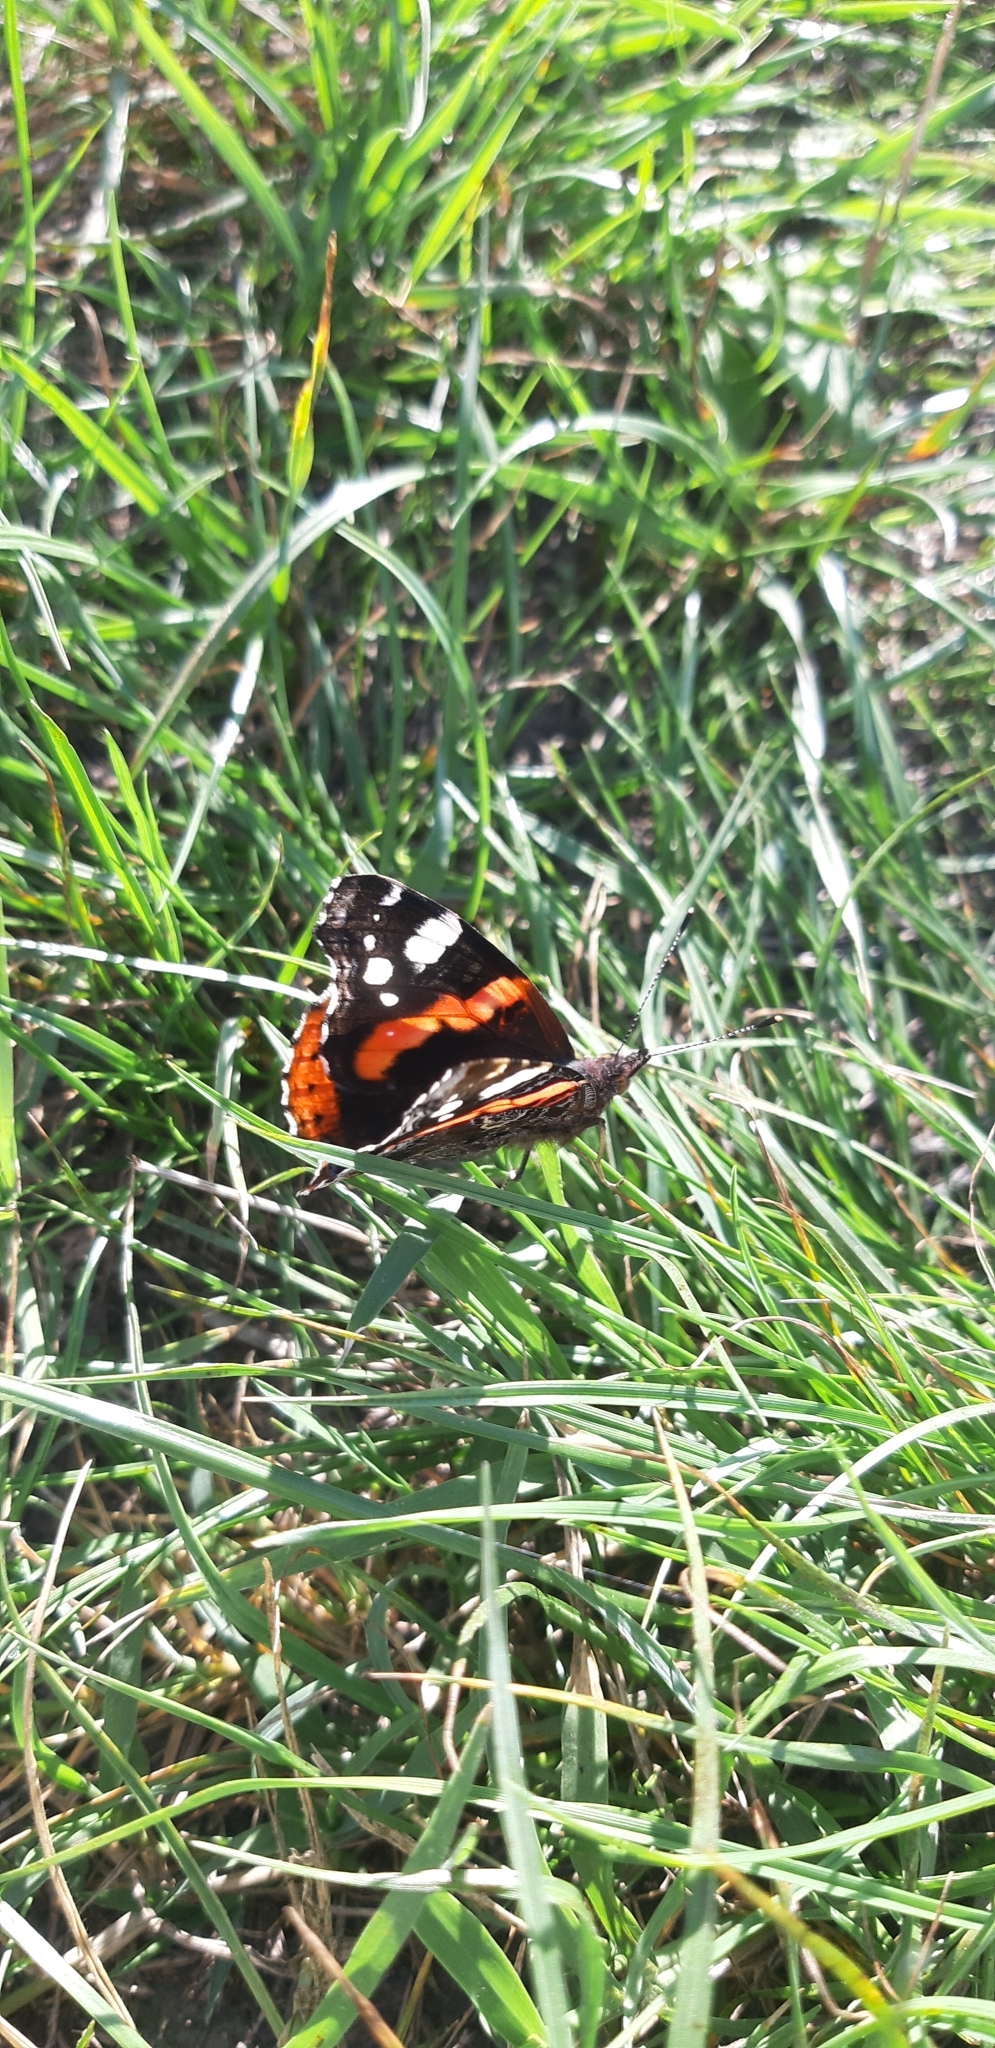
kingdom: Animalia
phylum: Arthropoda
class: Insecta
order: Lepidoptera
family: Nymphalidae
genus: Vanessa
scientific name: Vanessa atalanta
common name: Red admiral
